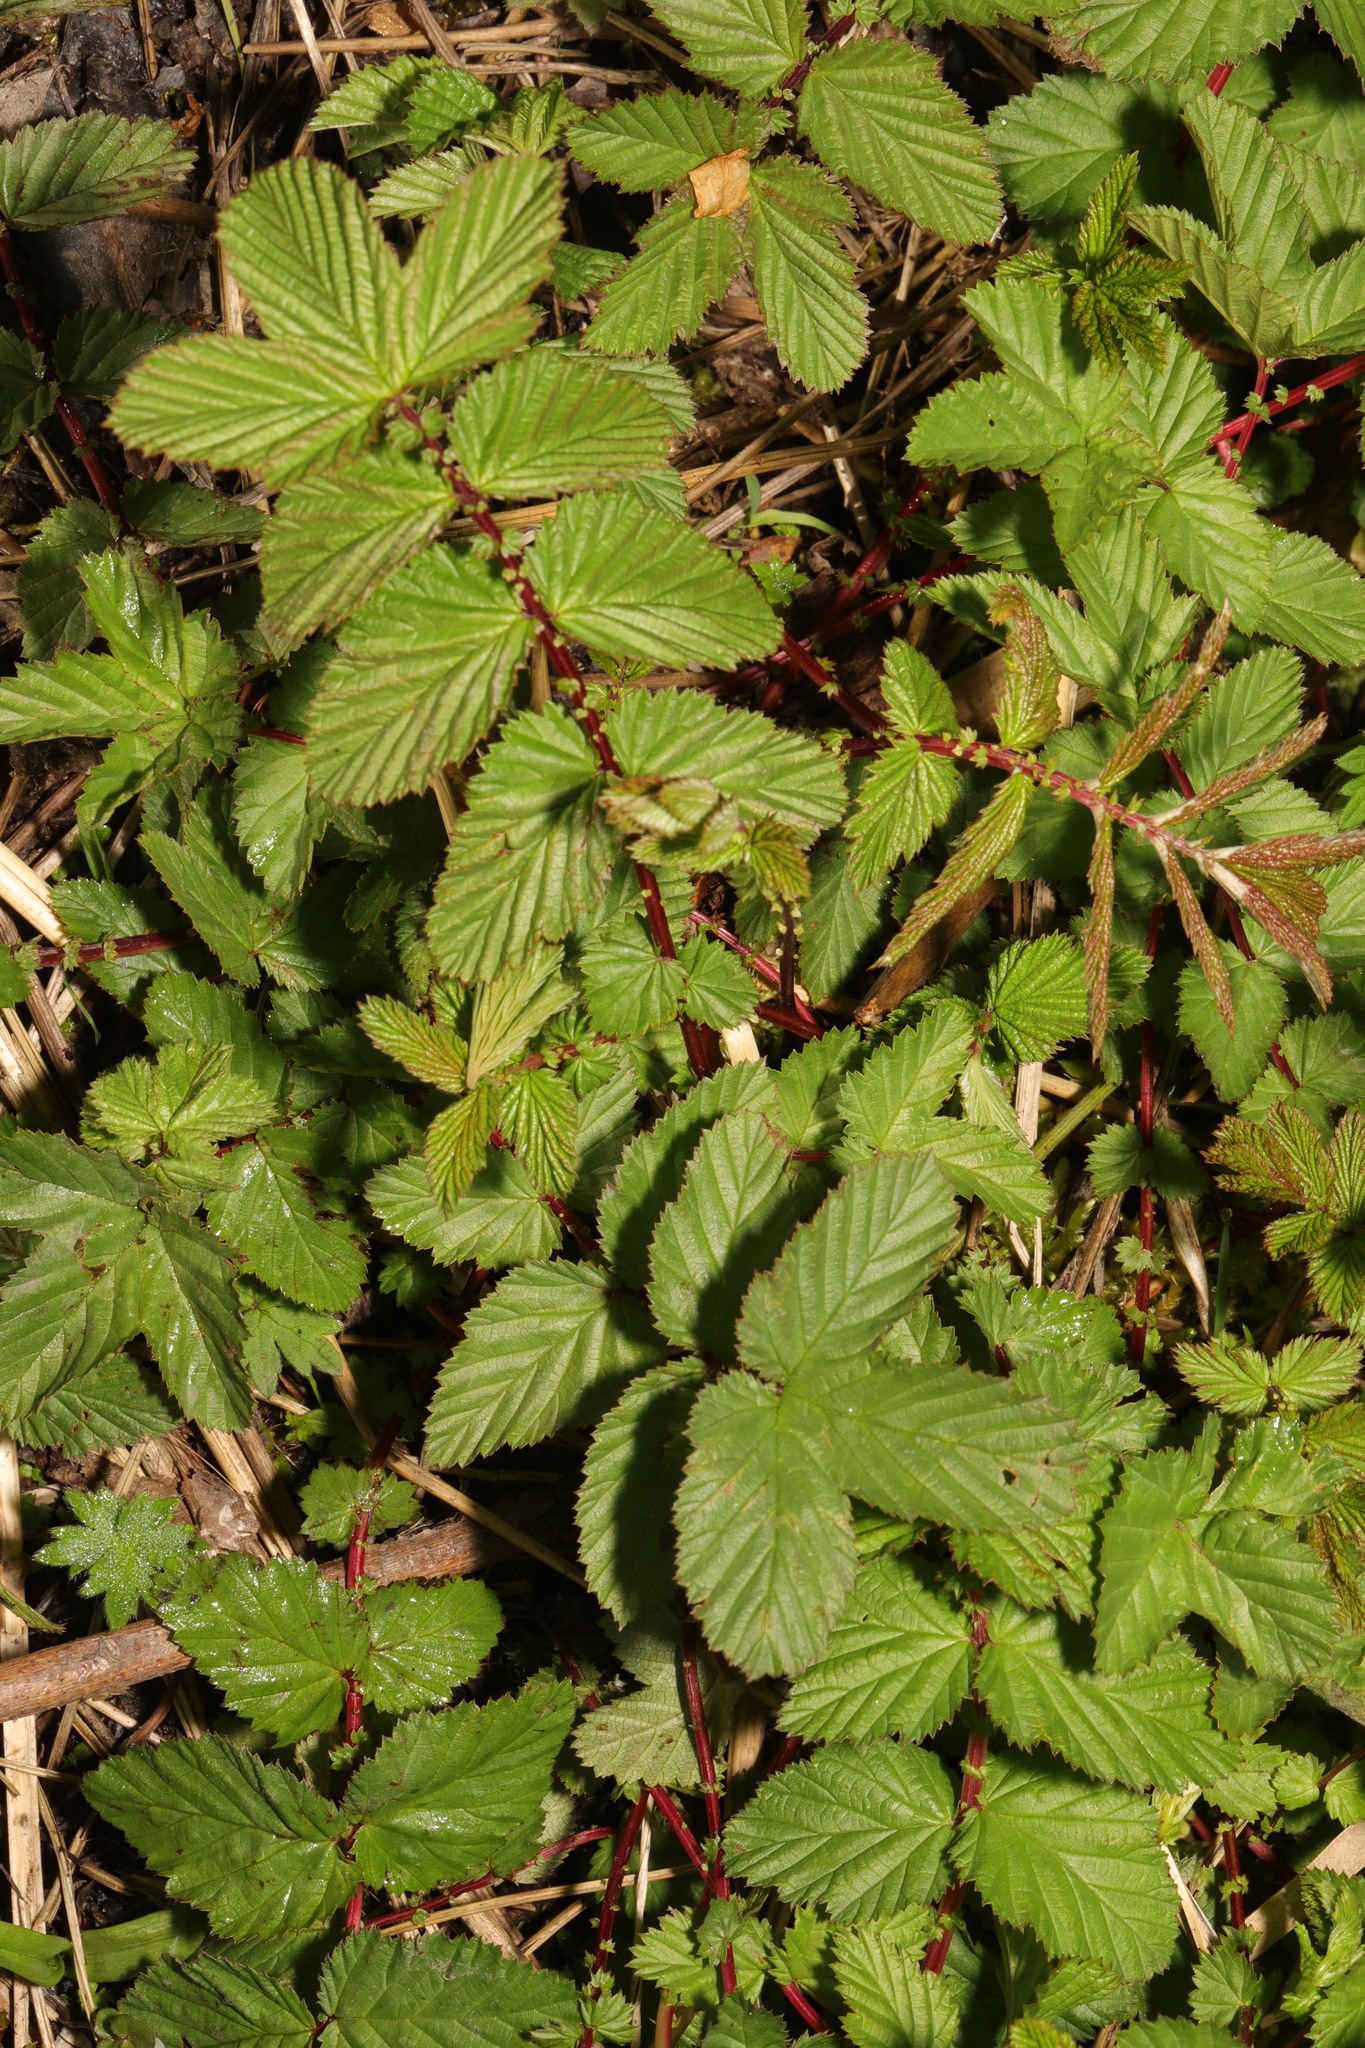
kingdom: Plantae
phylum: Tracheophyta
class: Magnoliopsida
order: Rosales
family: Rosaceae
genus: Filipendula
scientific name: Filipendula ulmaria
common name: Meadowsweet
